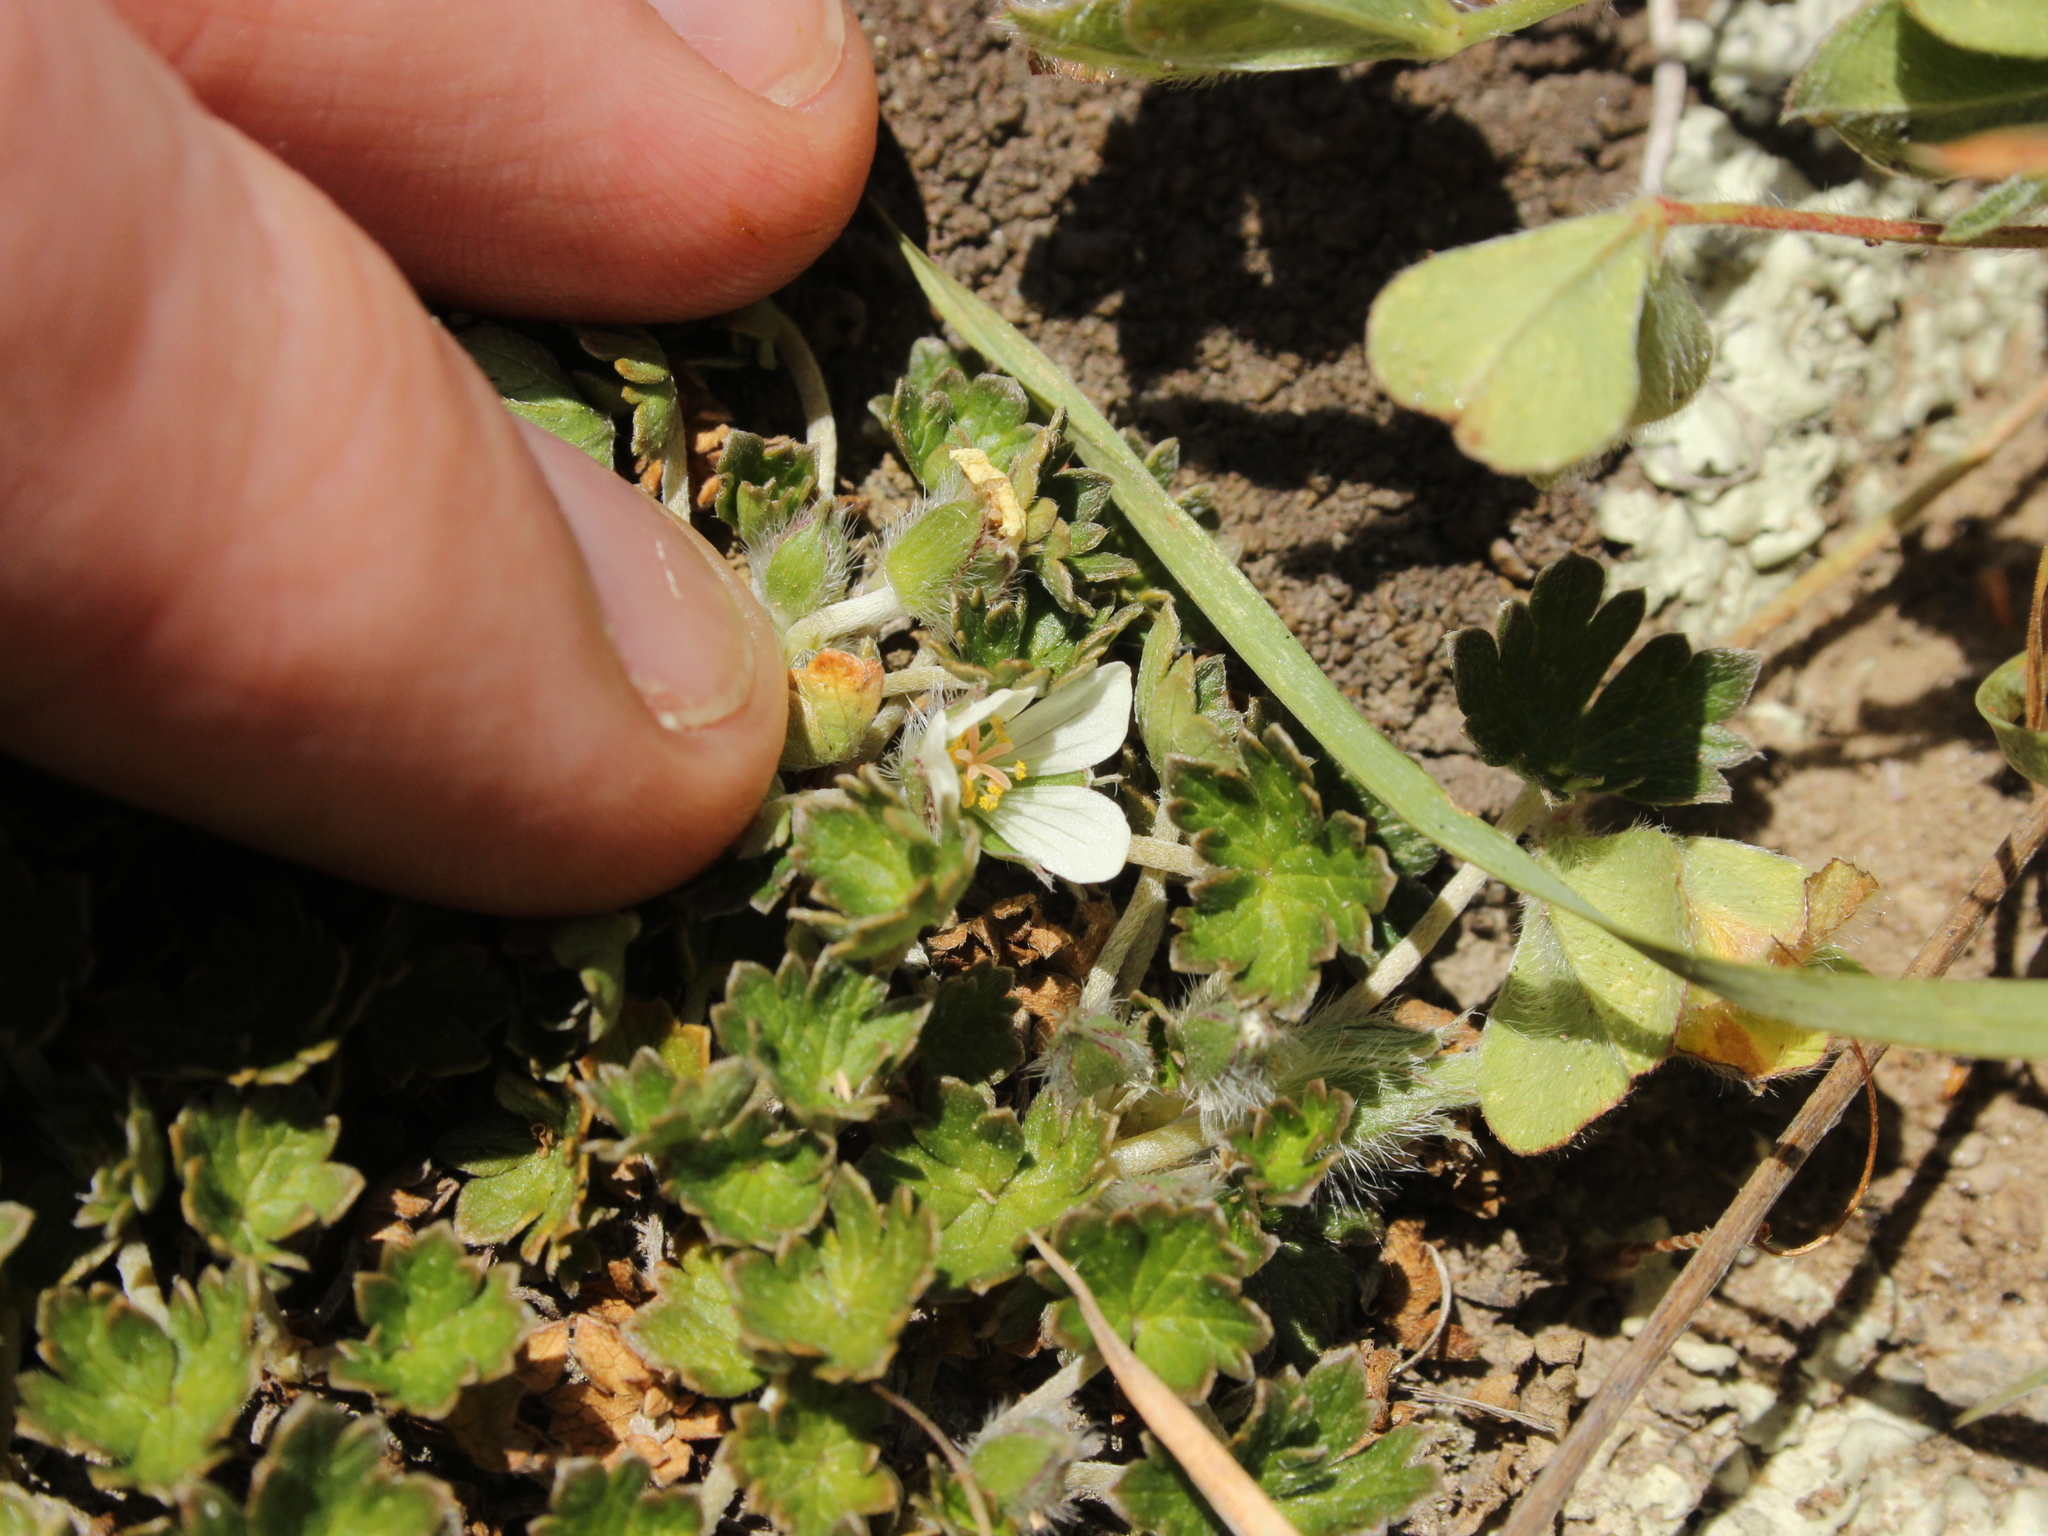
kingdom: Plantae
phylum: Tracheophyta
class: Magnoliopsida
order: Geraniales
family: Geraniaceae
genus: Geranium
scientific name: Geranium brevicaule
